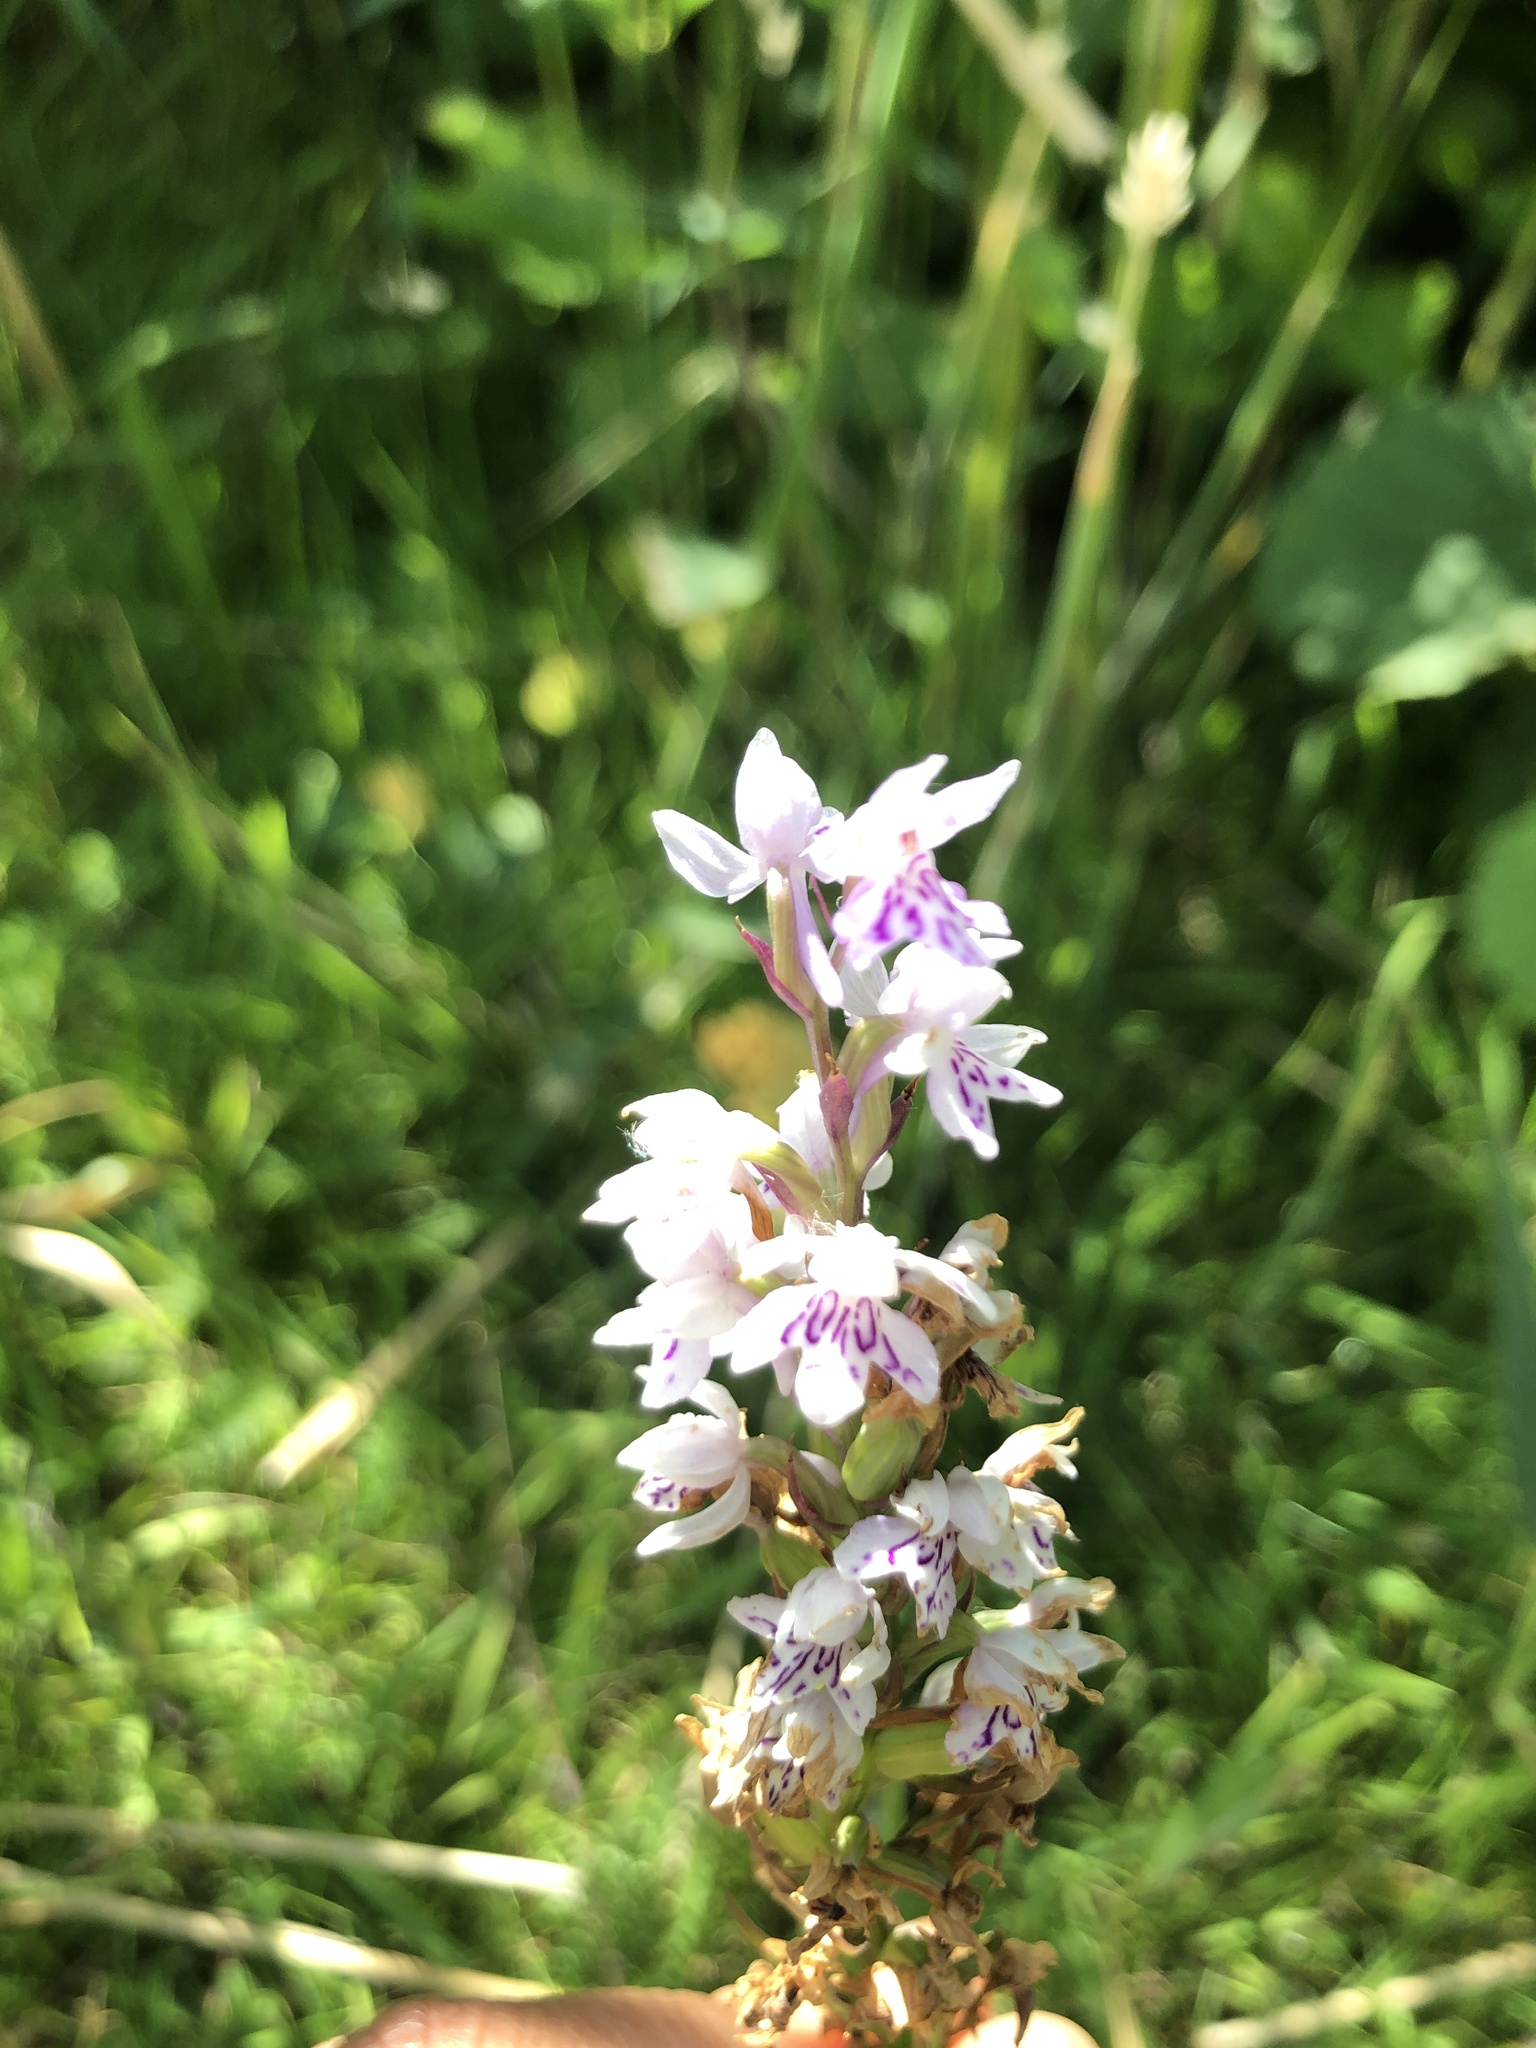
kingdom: Plantae
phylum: Tracheophyta
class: Liliopsida
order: Asparagales
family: Orchidaceae
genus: Dactylorhiza
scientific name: Dactylorhiza maculata
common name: Heath spotted-orchid
